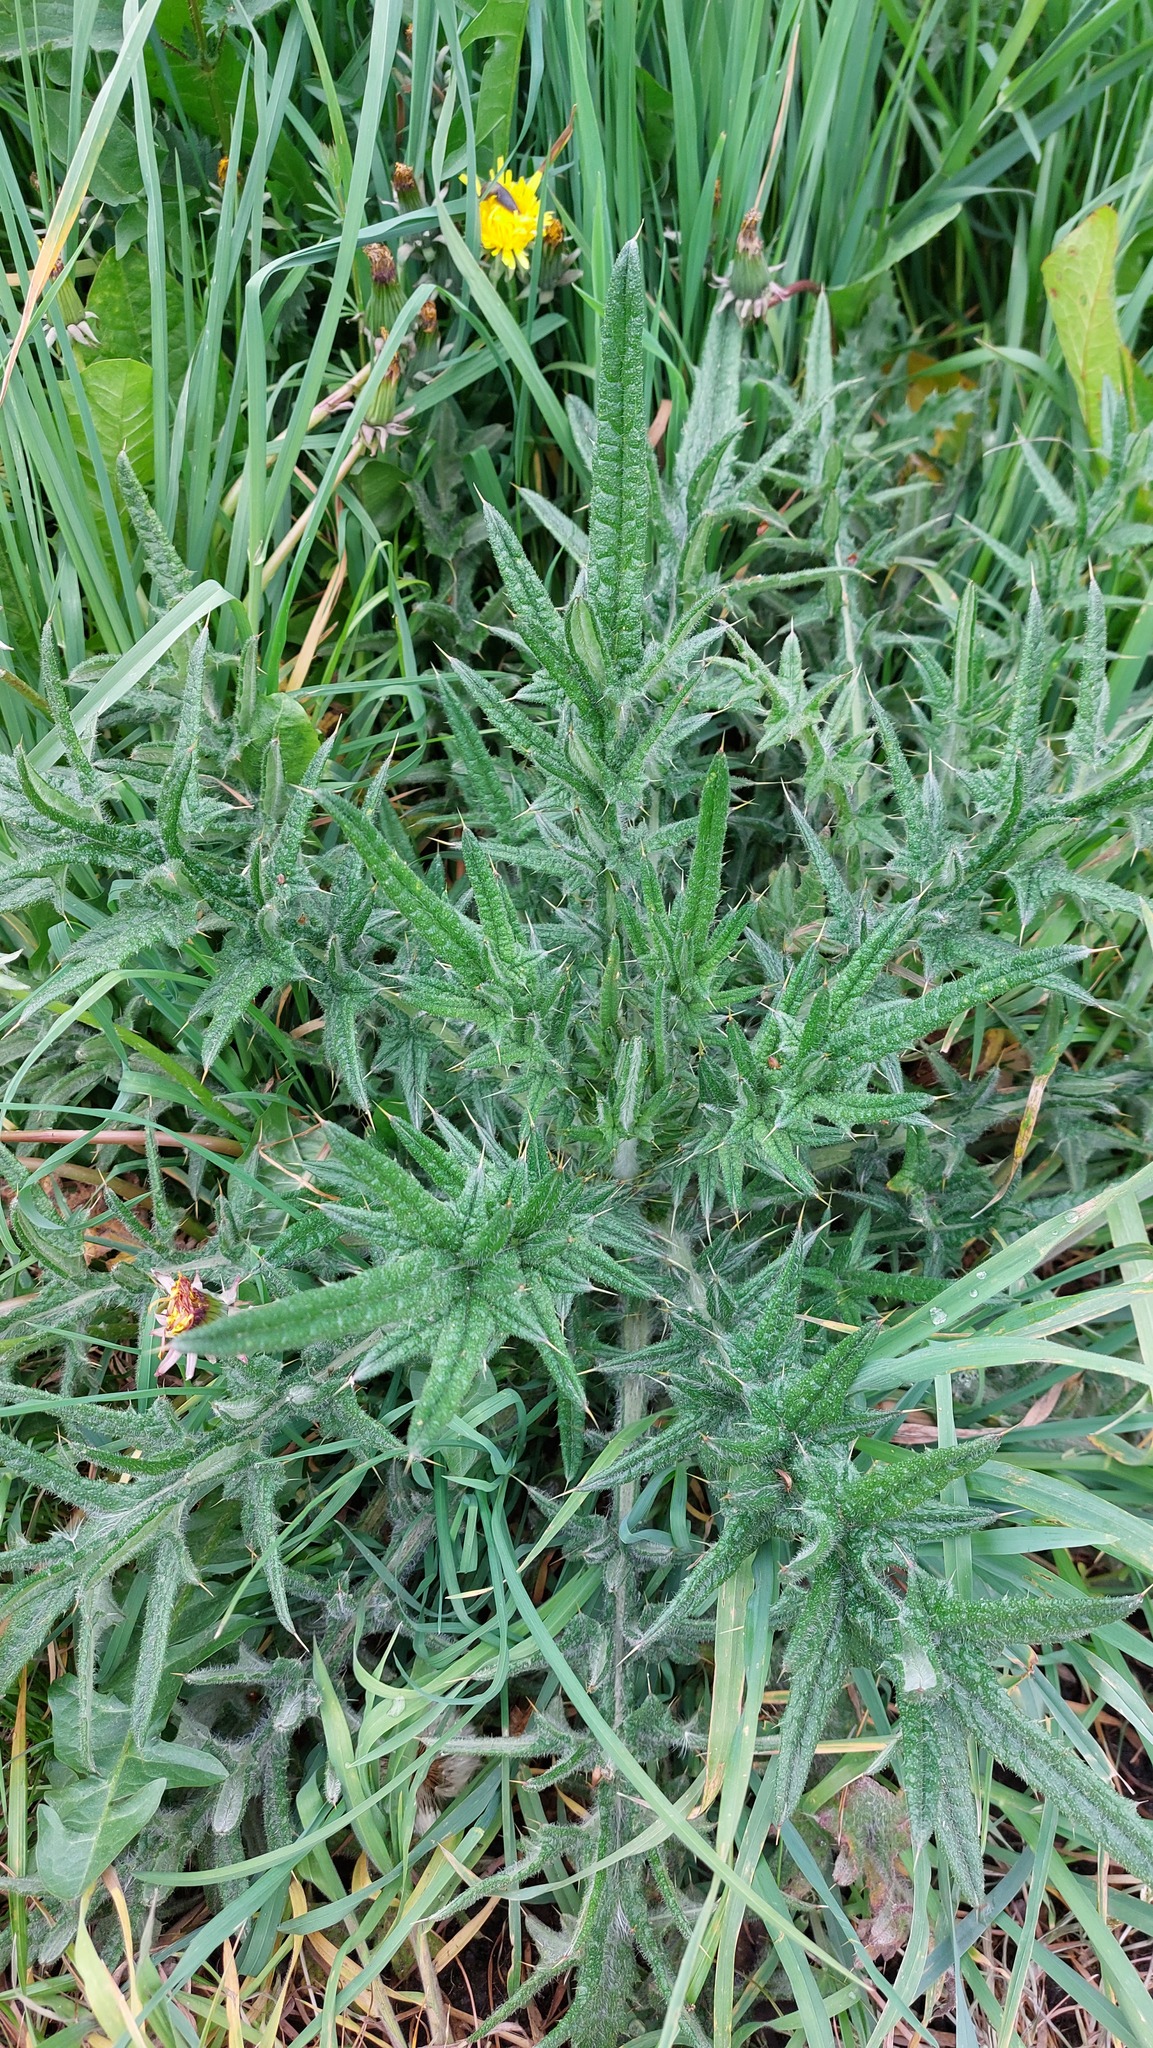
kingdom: Plantae
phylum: Tracheophyta
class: Magnoliopsida
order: Asterales
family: Asteraceae
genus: Cirsium
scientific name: Cirsium vulgare
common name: Bull thistle
